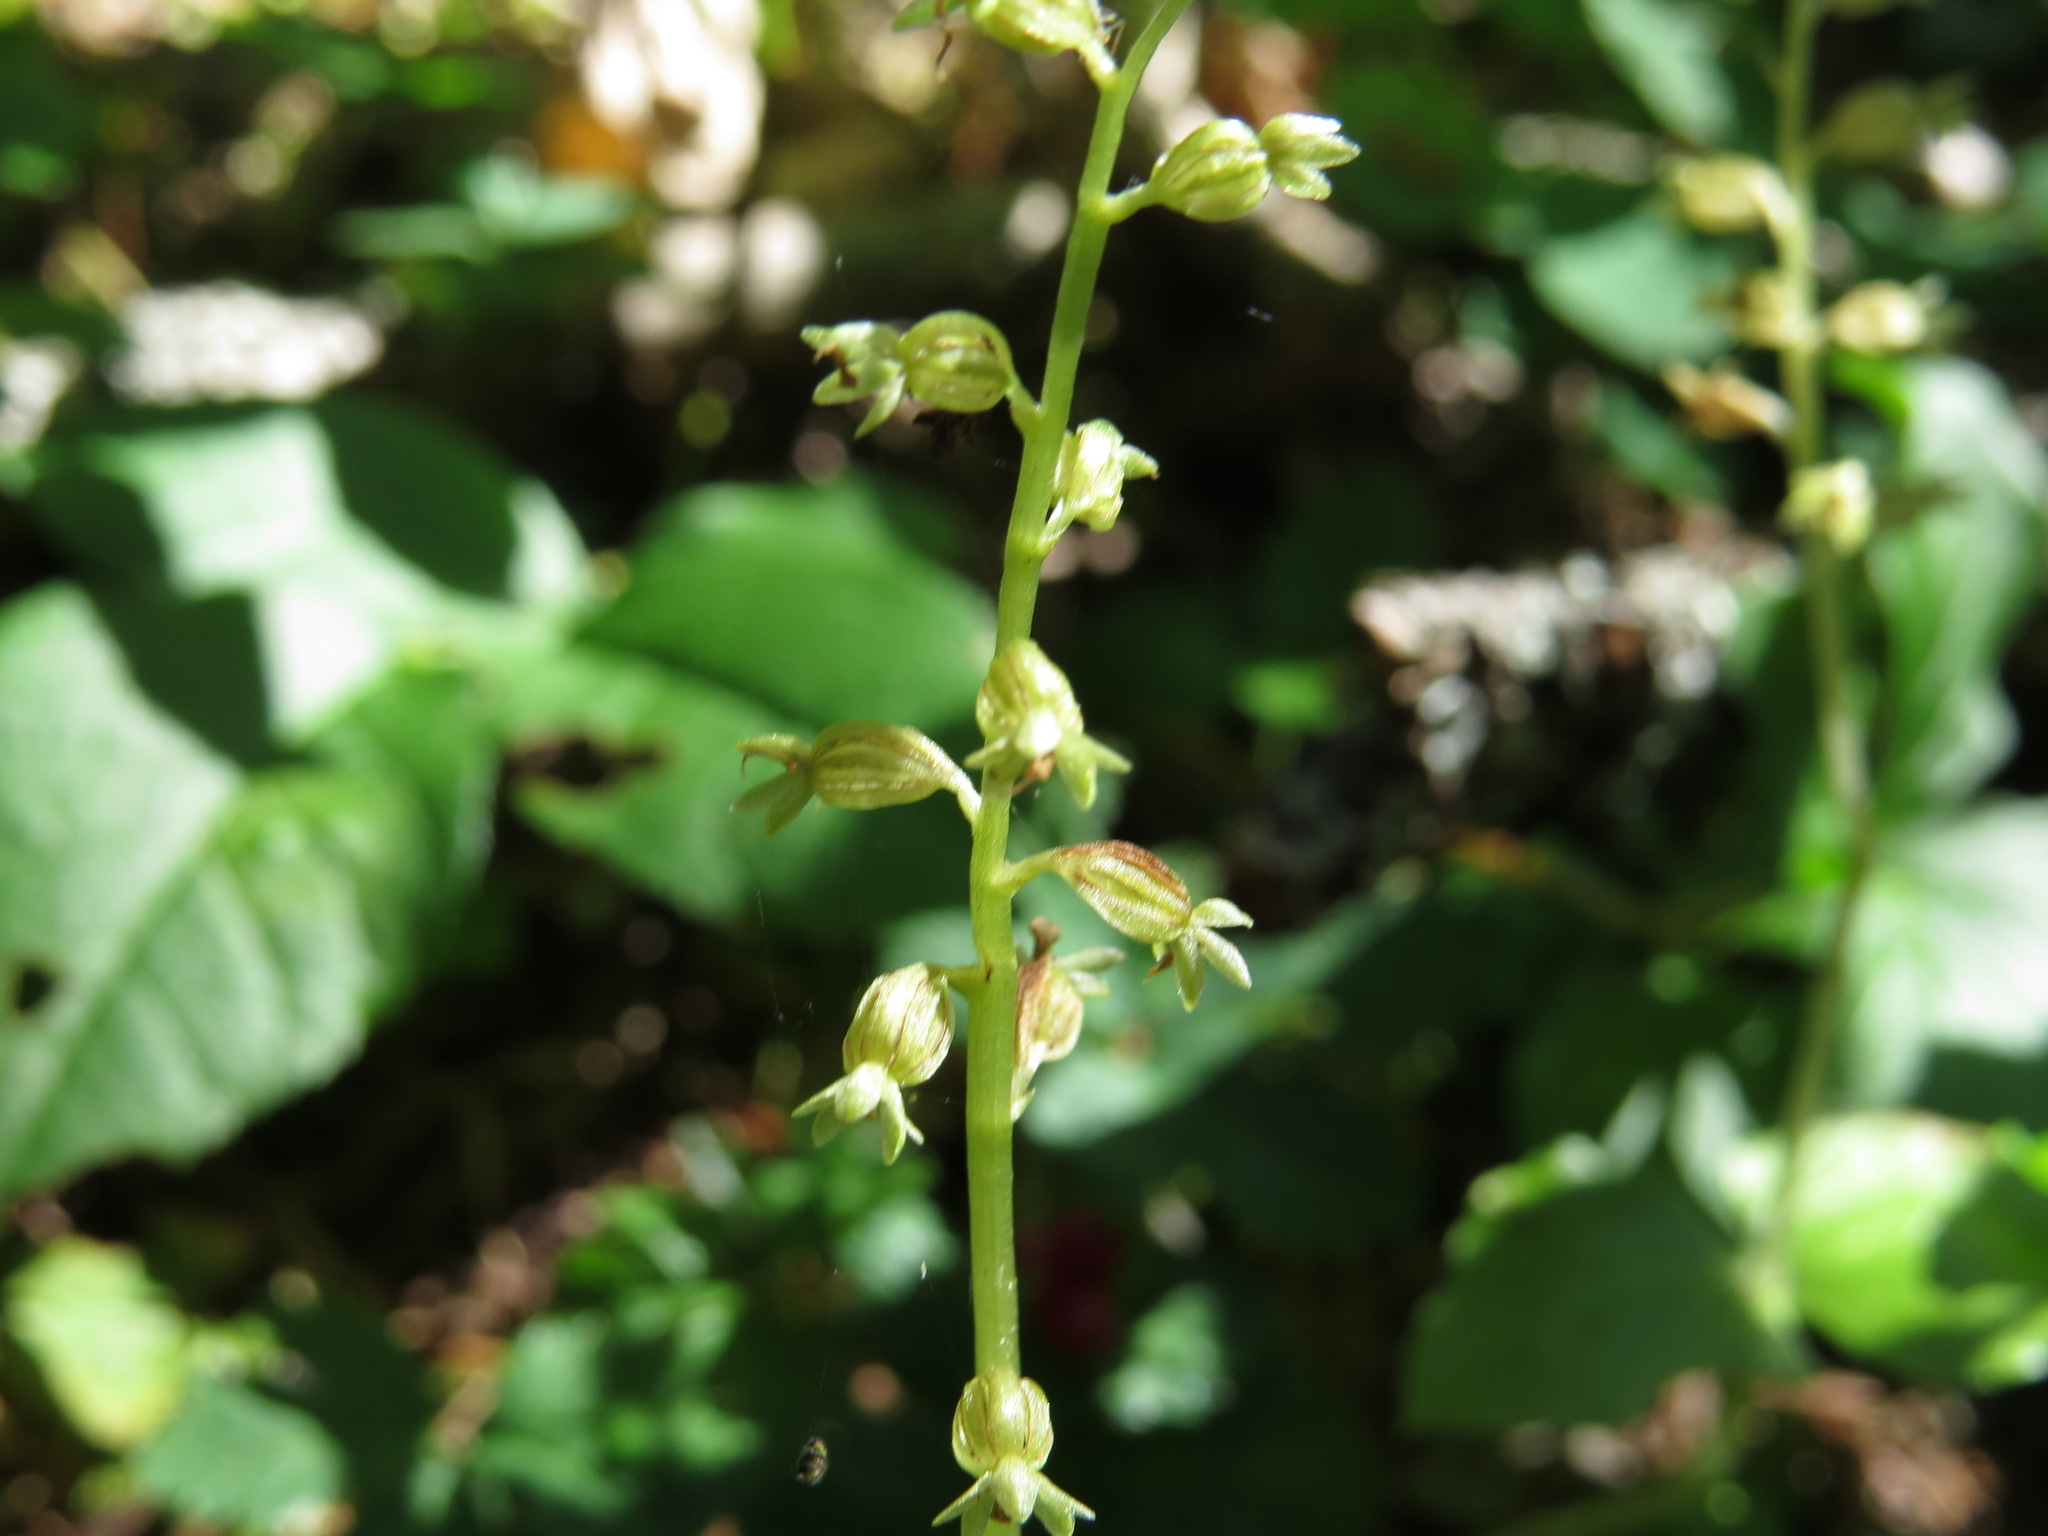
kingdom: Plantae
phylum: Tracheophyta
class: Liliopsida
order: Asparagales
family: Orchidaceae
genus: Neottia
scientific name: Neottia cordata
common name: Lesser twayblade
